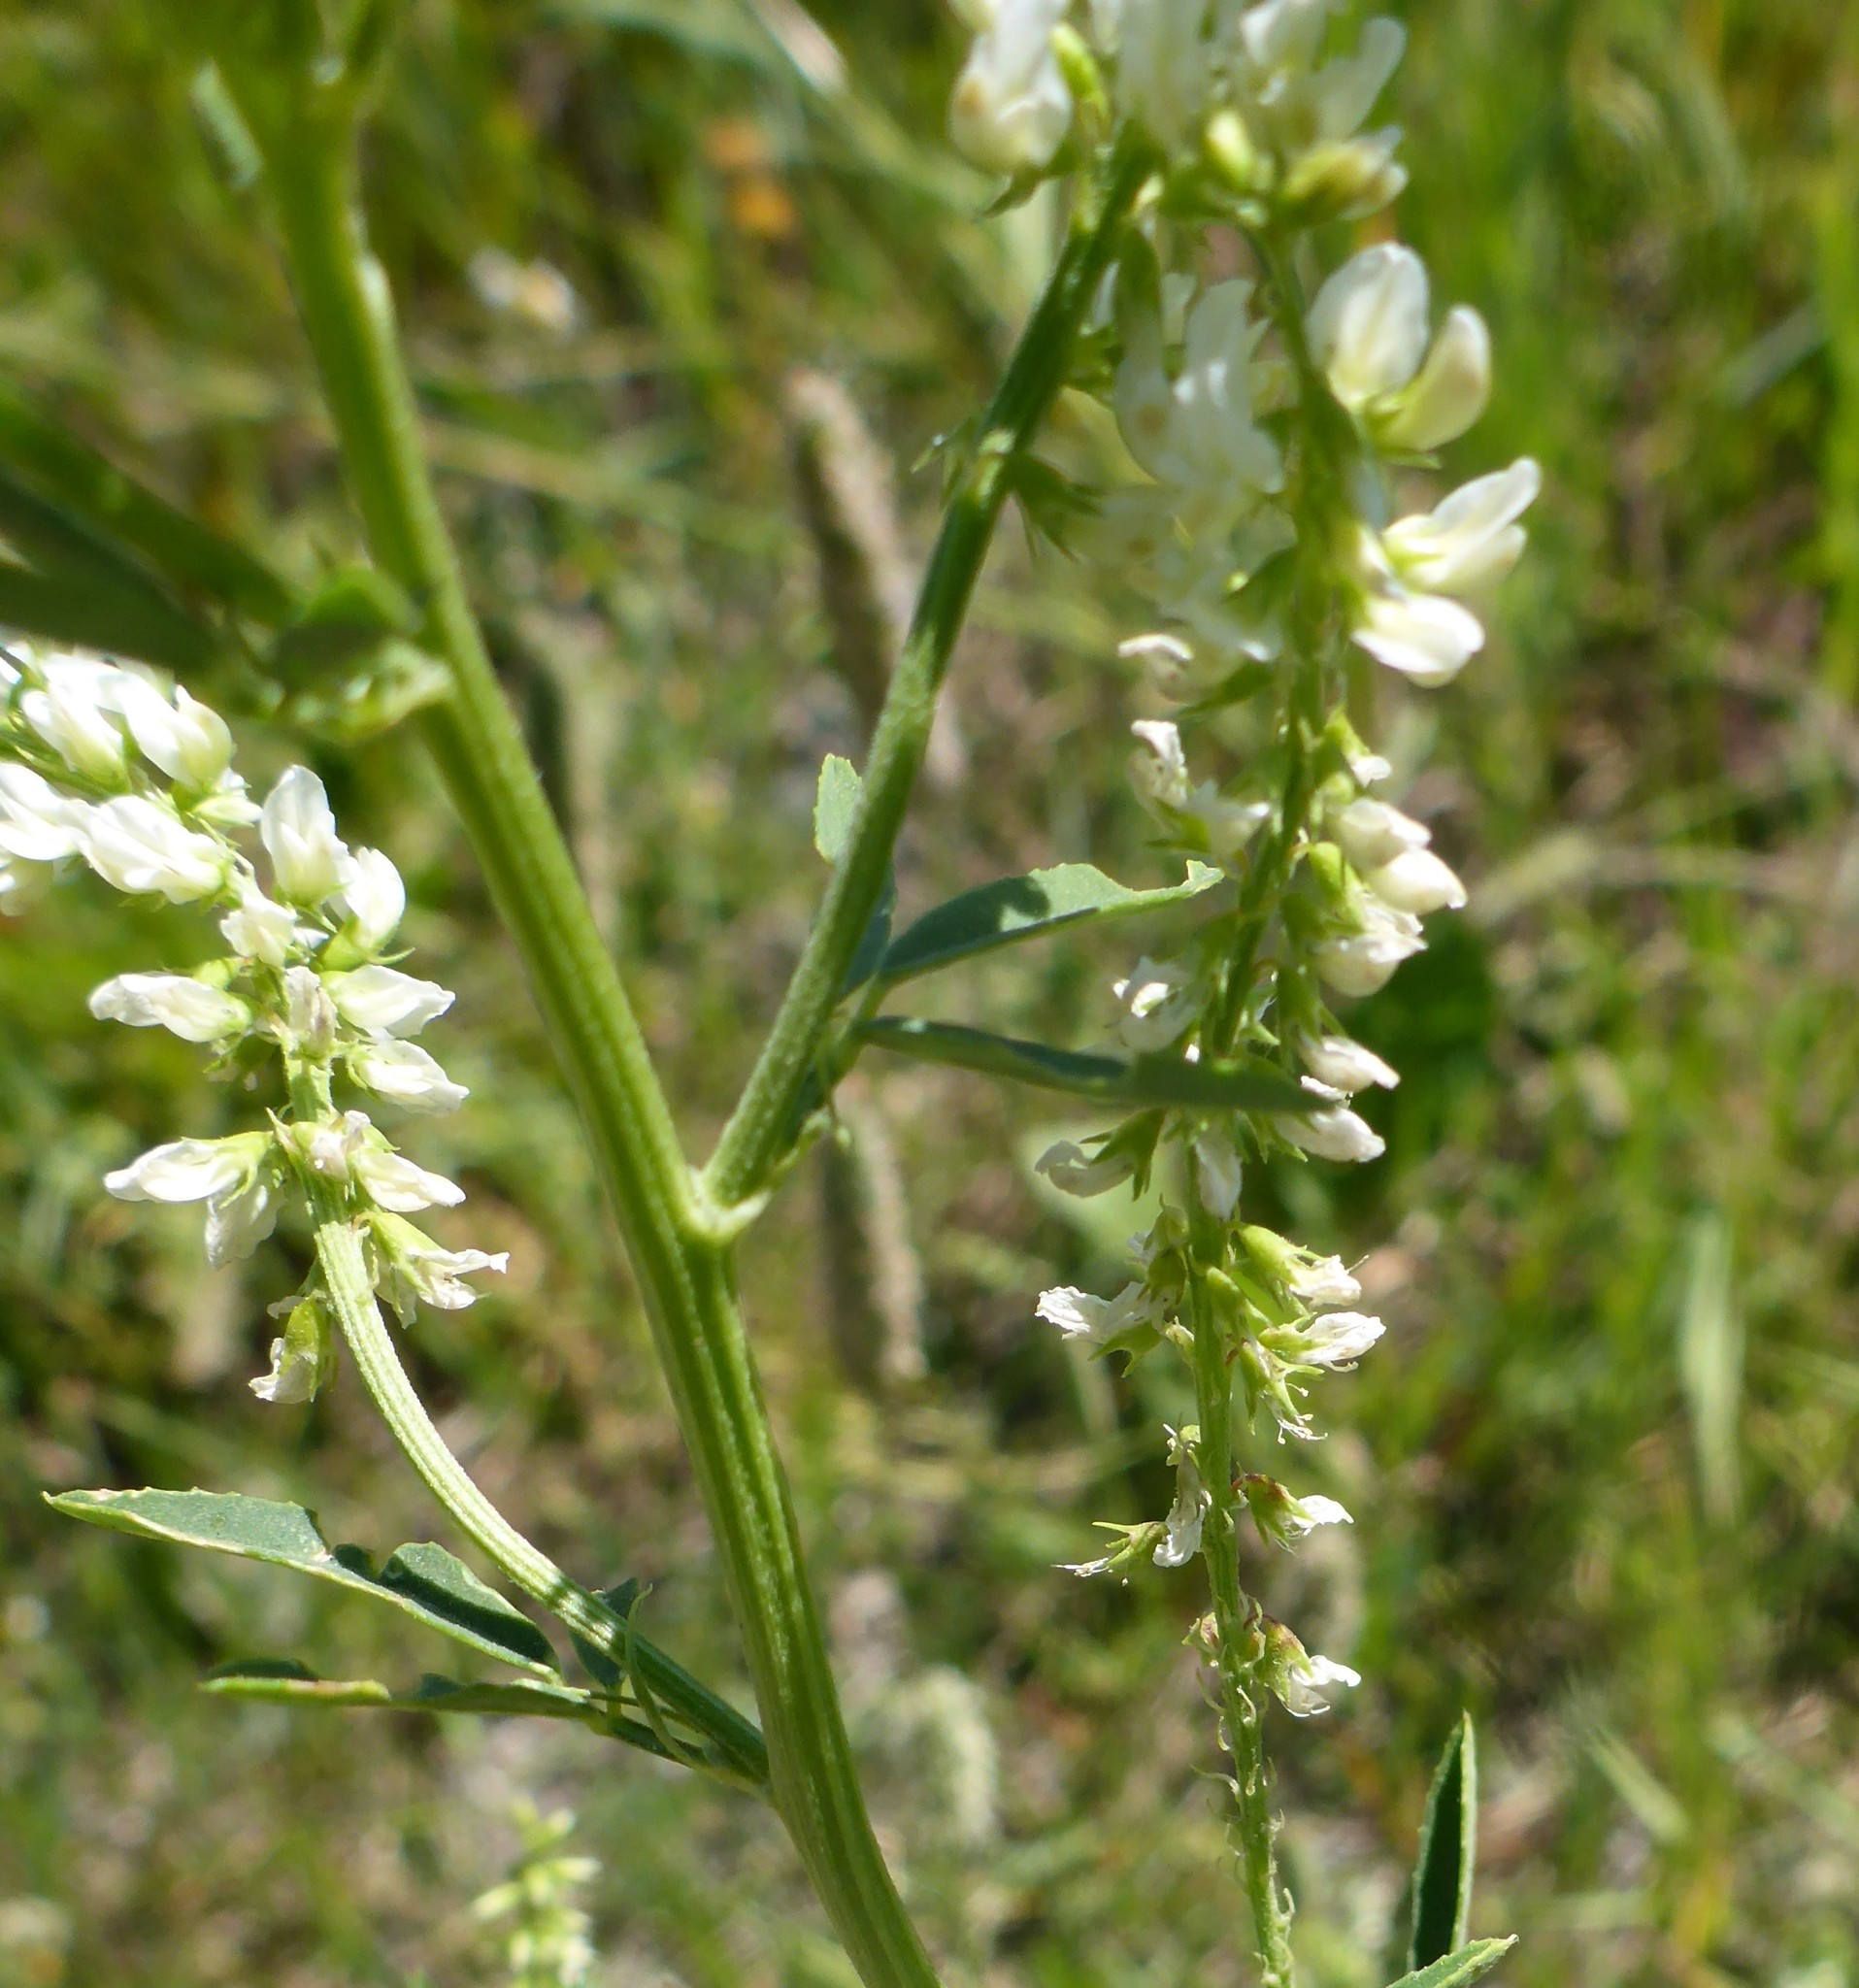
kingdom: Plantae
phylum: Tracheophyta
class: Magnoliopsida
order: Fabales
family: Fabaceae
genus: Melilotus
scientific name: Melilotus albus
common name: White melilot
